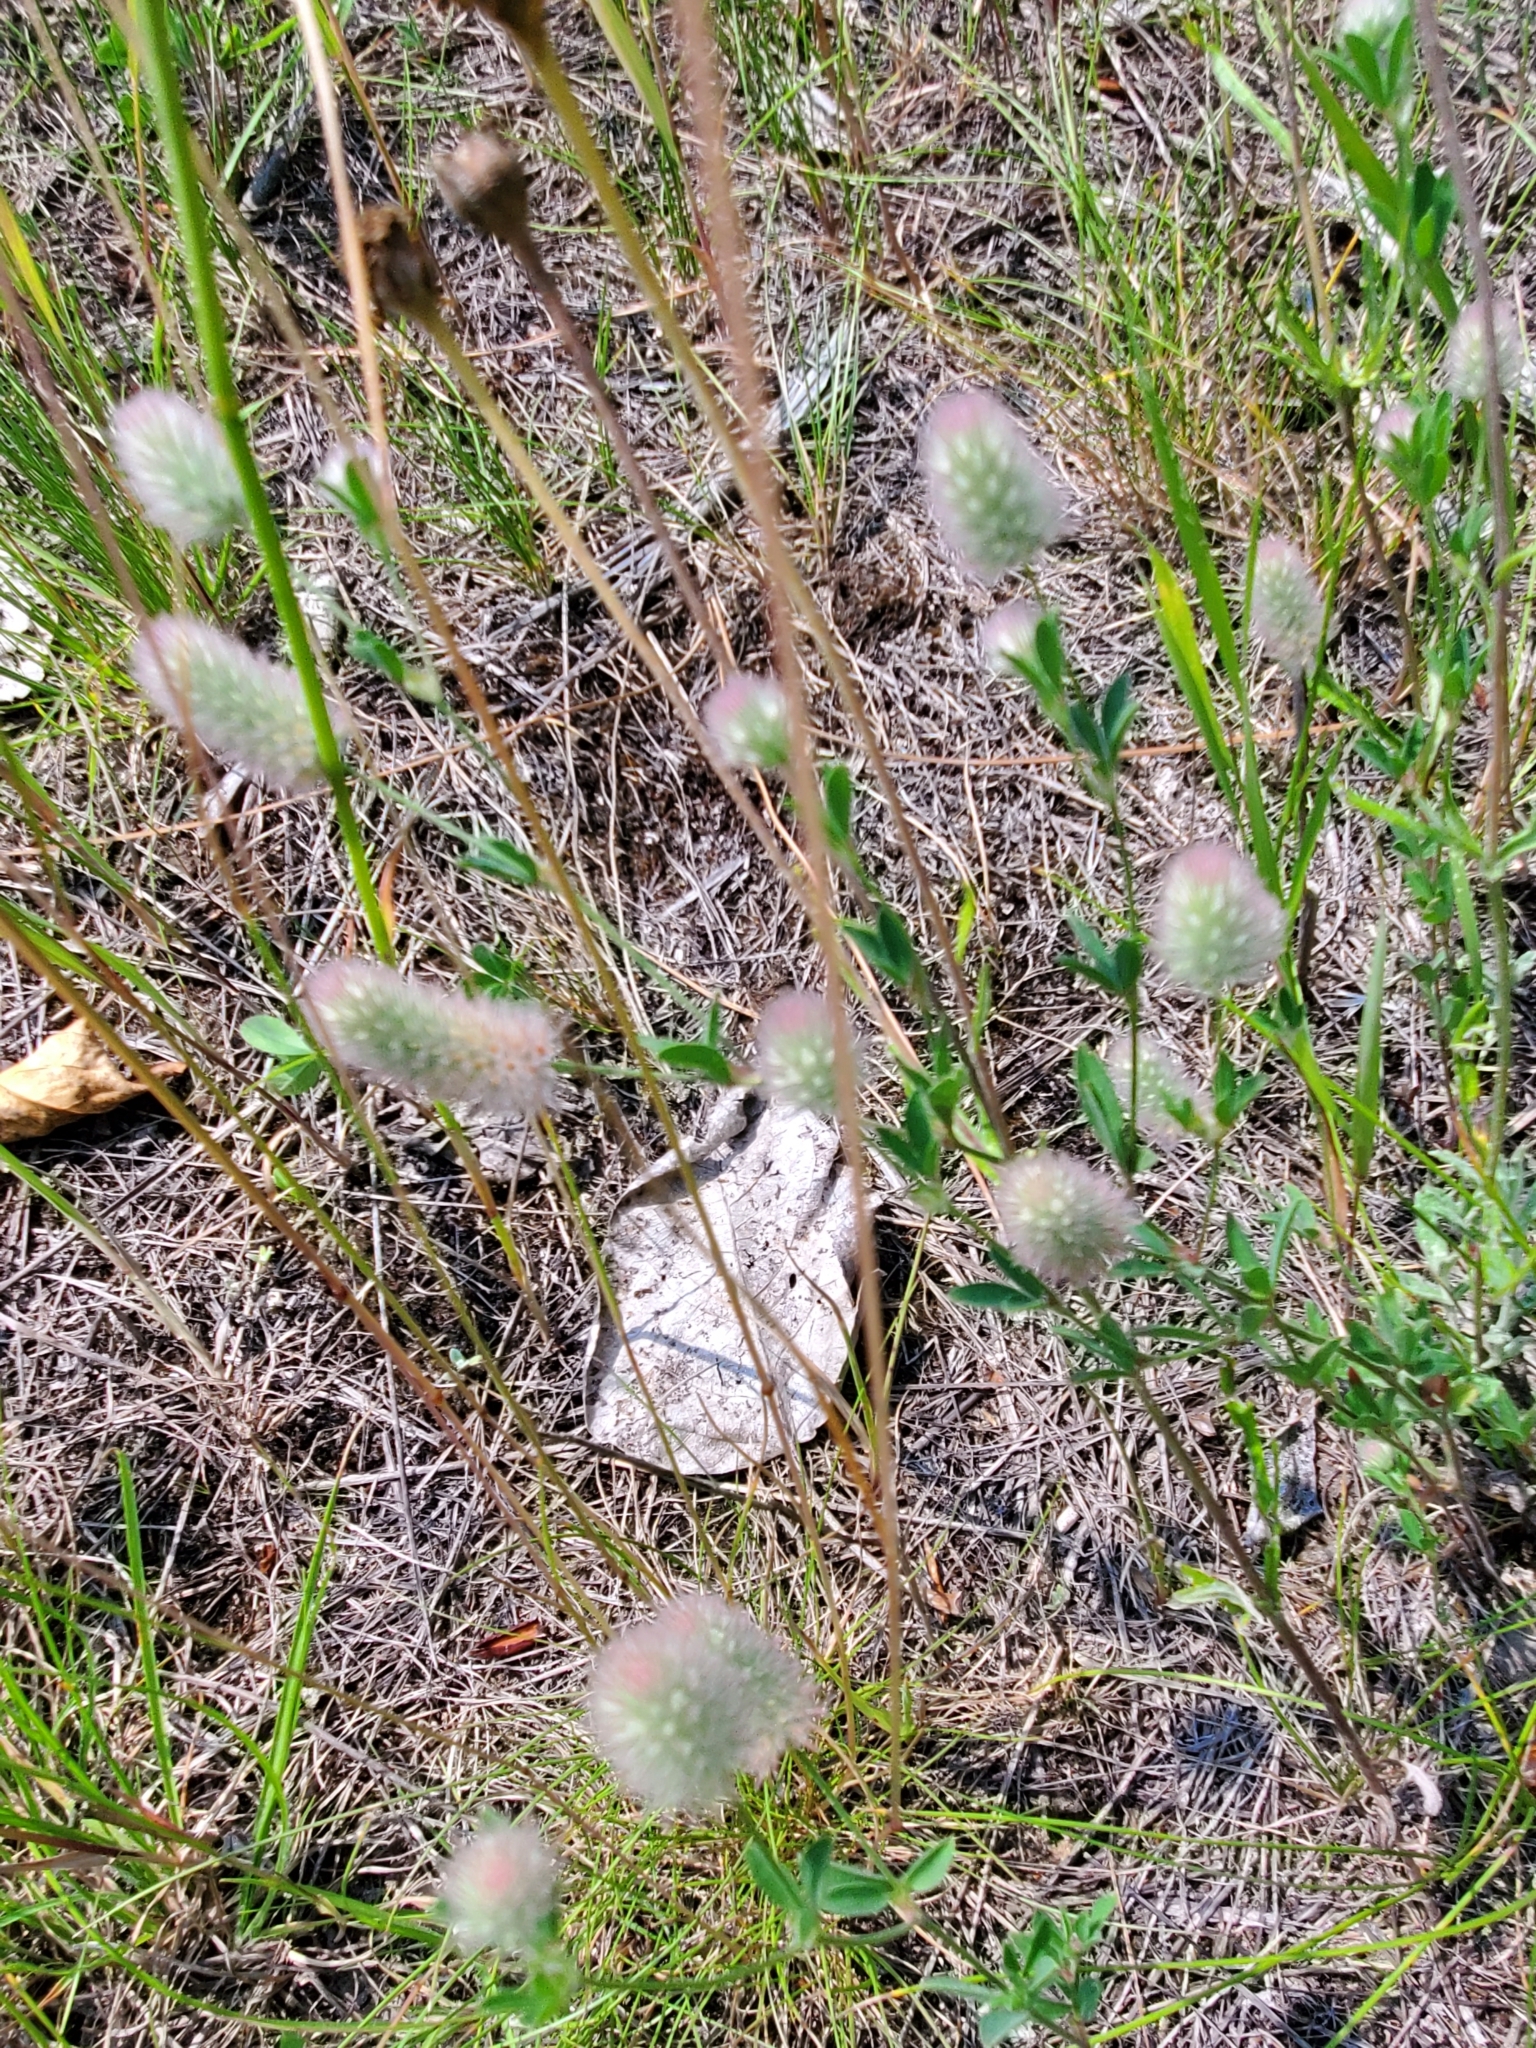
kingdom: Plantae
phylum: Tracheophyta
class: Magnoliopsida
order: Fabales
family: Fabaceae
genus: Trifolium
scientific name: Trifolium arvense
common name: Hare's-foot clover
